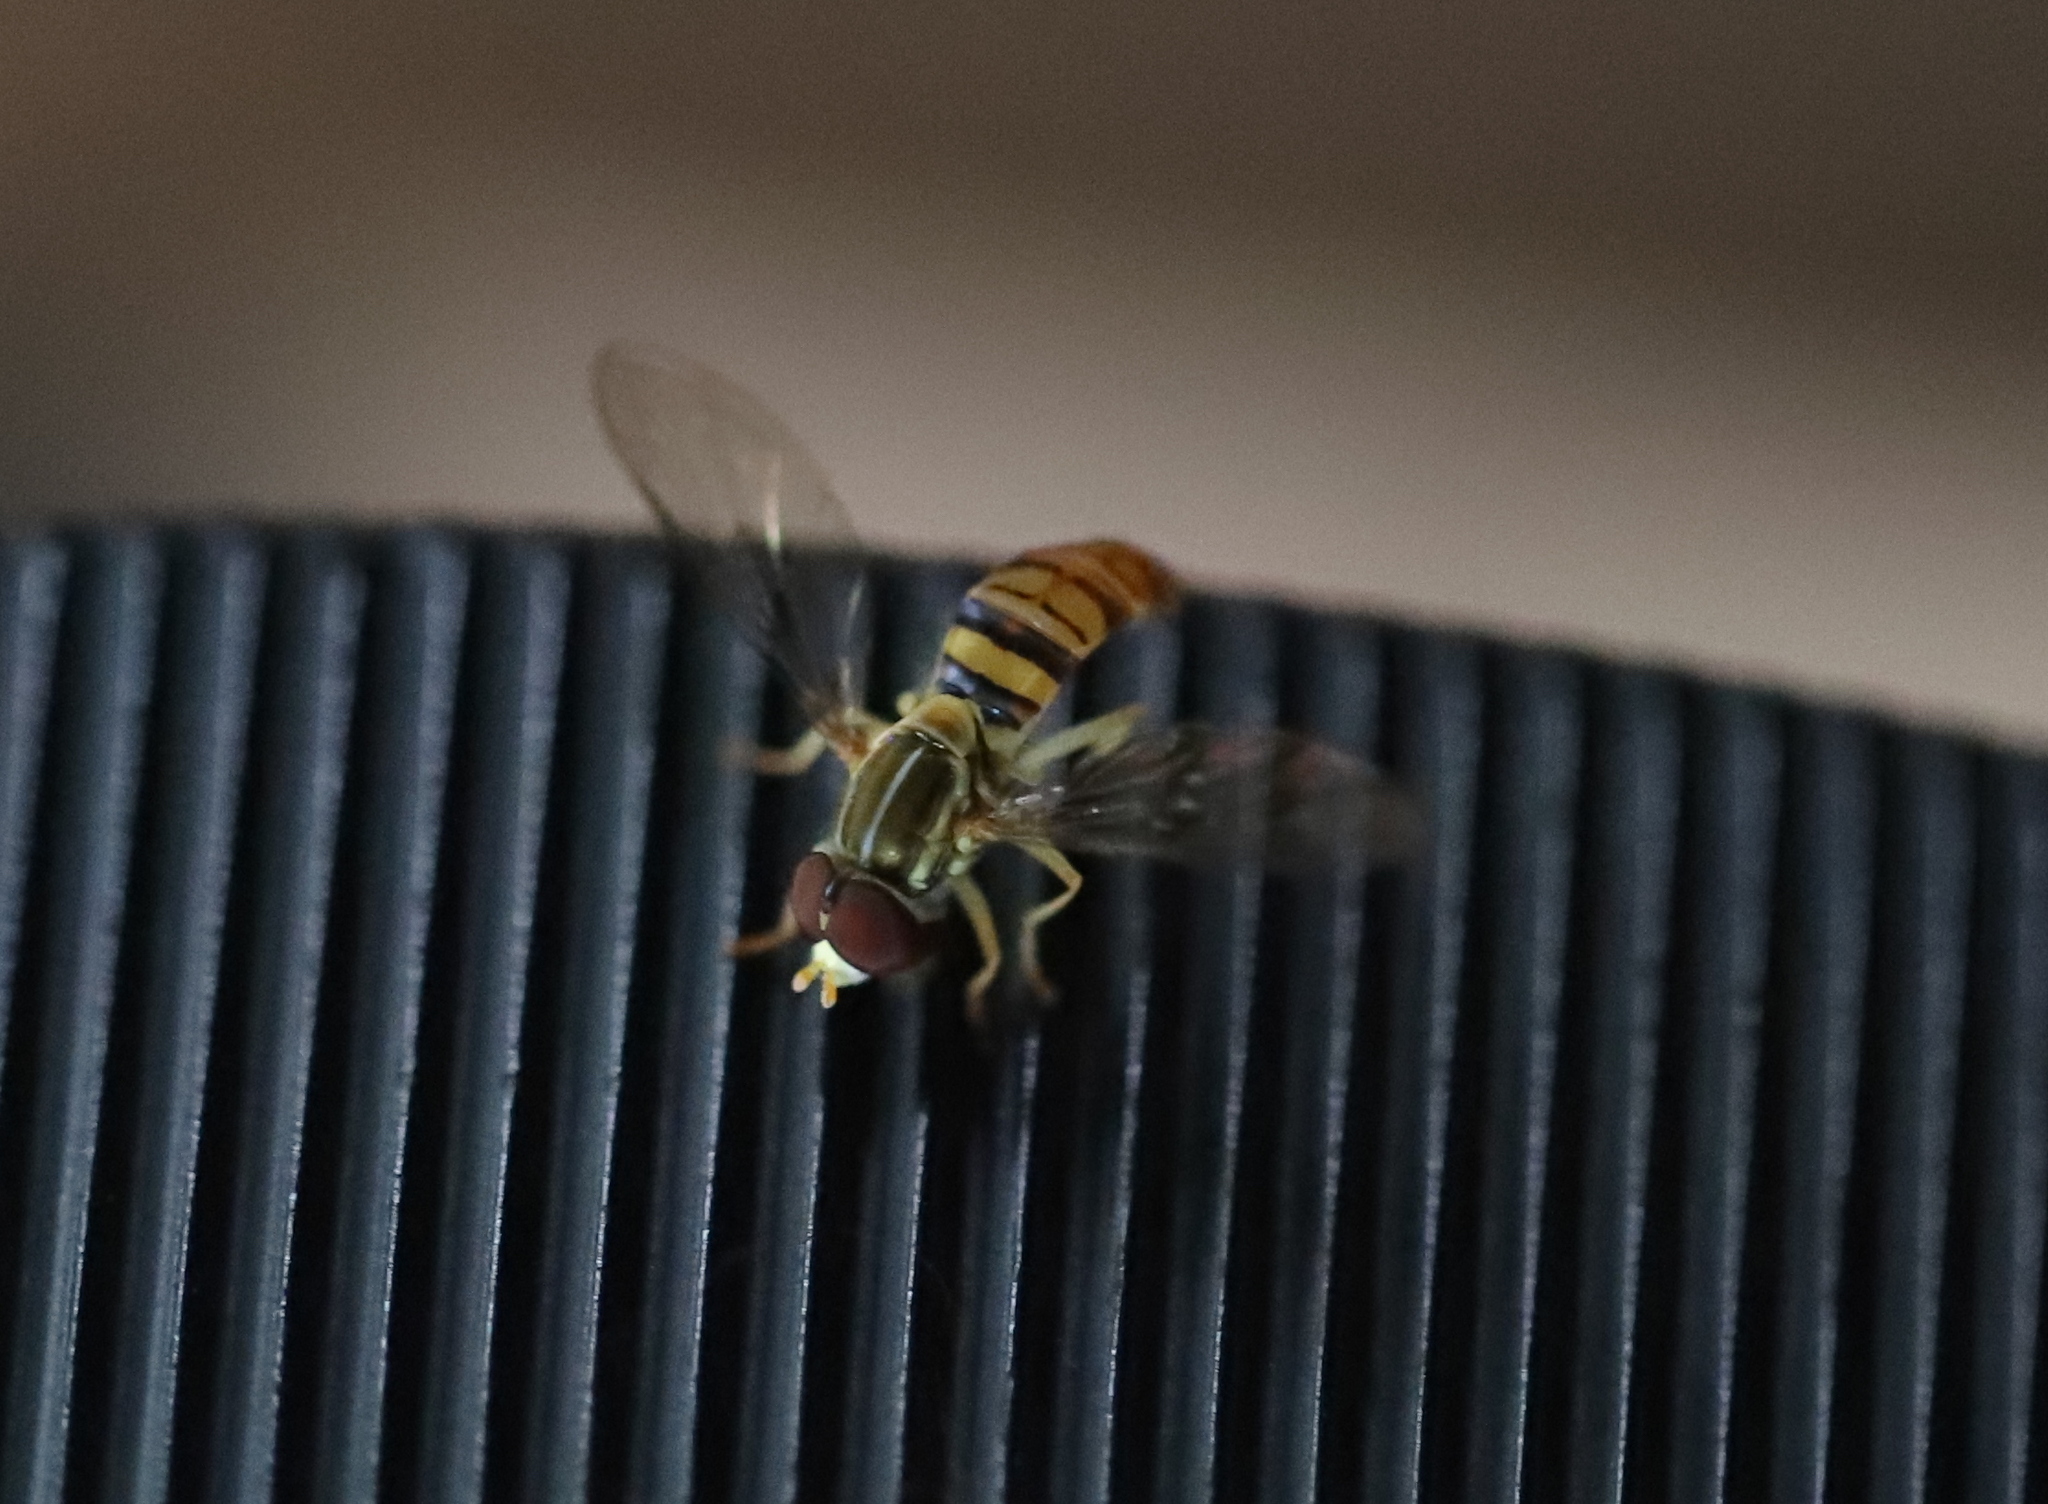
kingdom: Animalia
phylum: Arthropoda
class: Insecta
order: Diptera
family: Syrphidae
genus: Toxomerus
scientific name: Toxomerus politus
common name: Maize calligrapher
